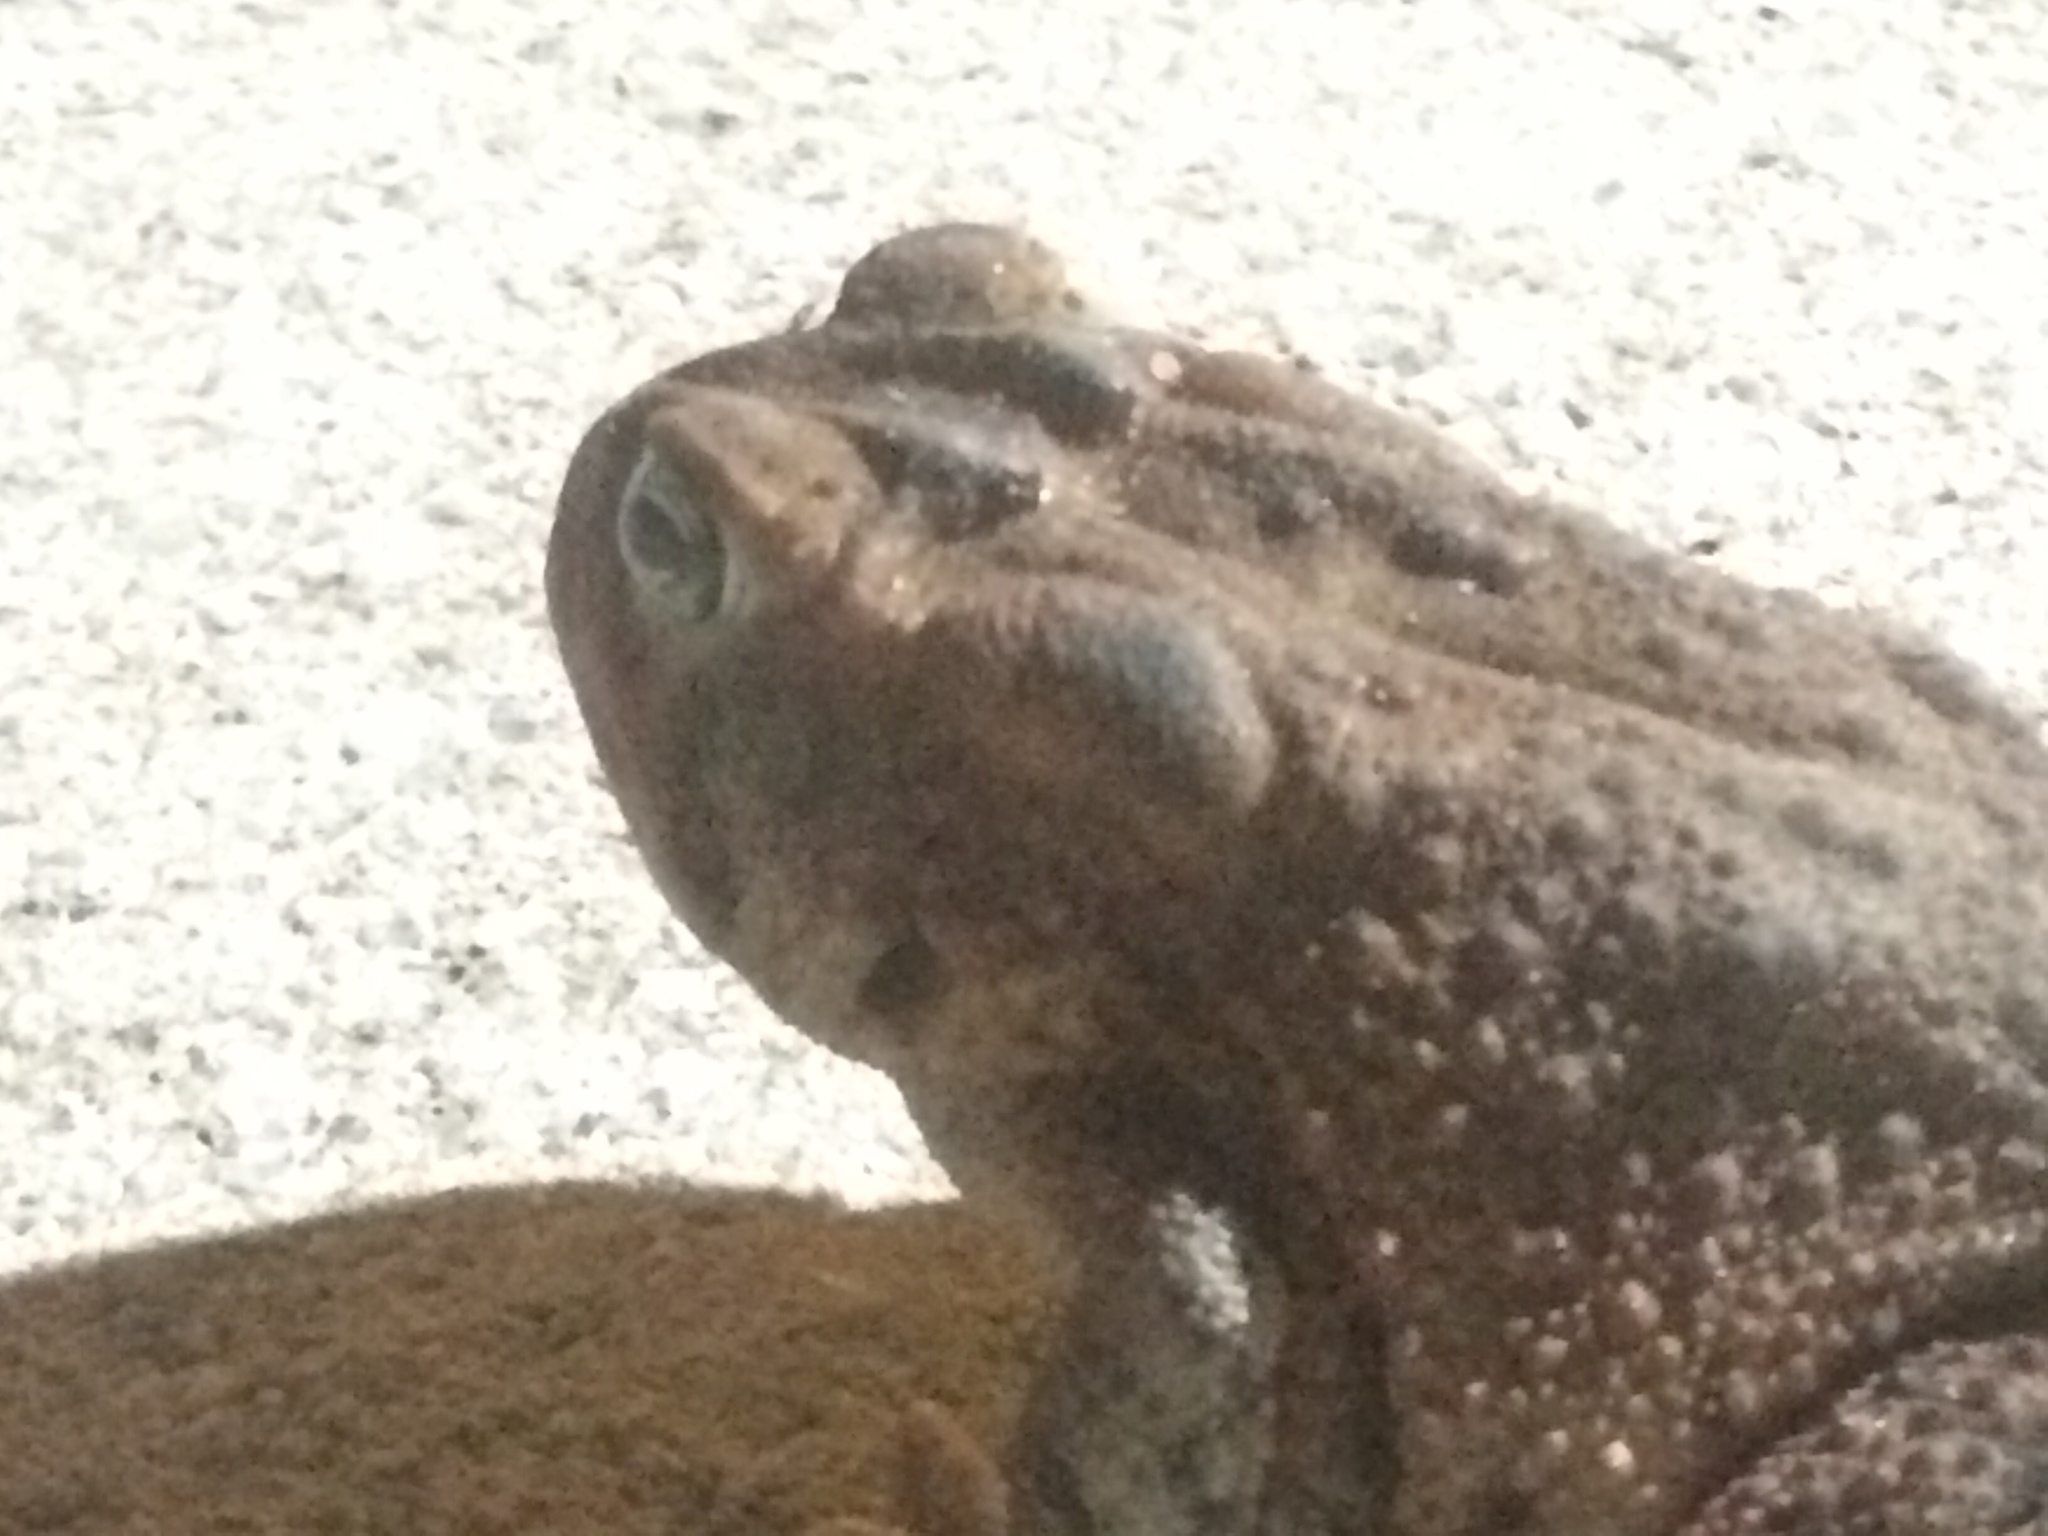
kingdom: Animalia
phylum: Chordata
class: Amphibia
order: Anura
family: Bufonidae
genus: Anaxyrus
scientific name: Anaxyrus terrestris
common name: Southern toad
